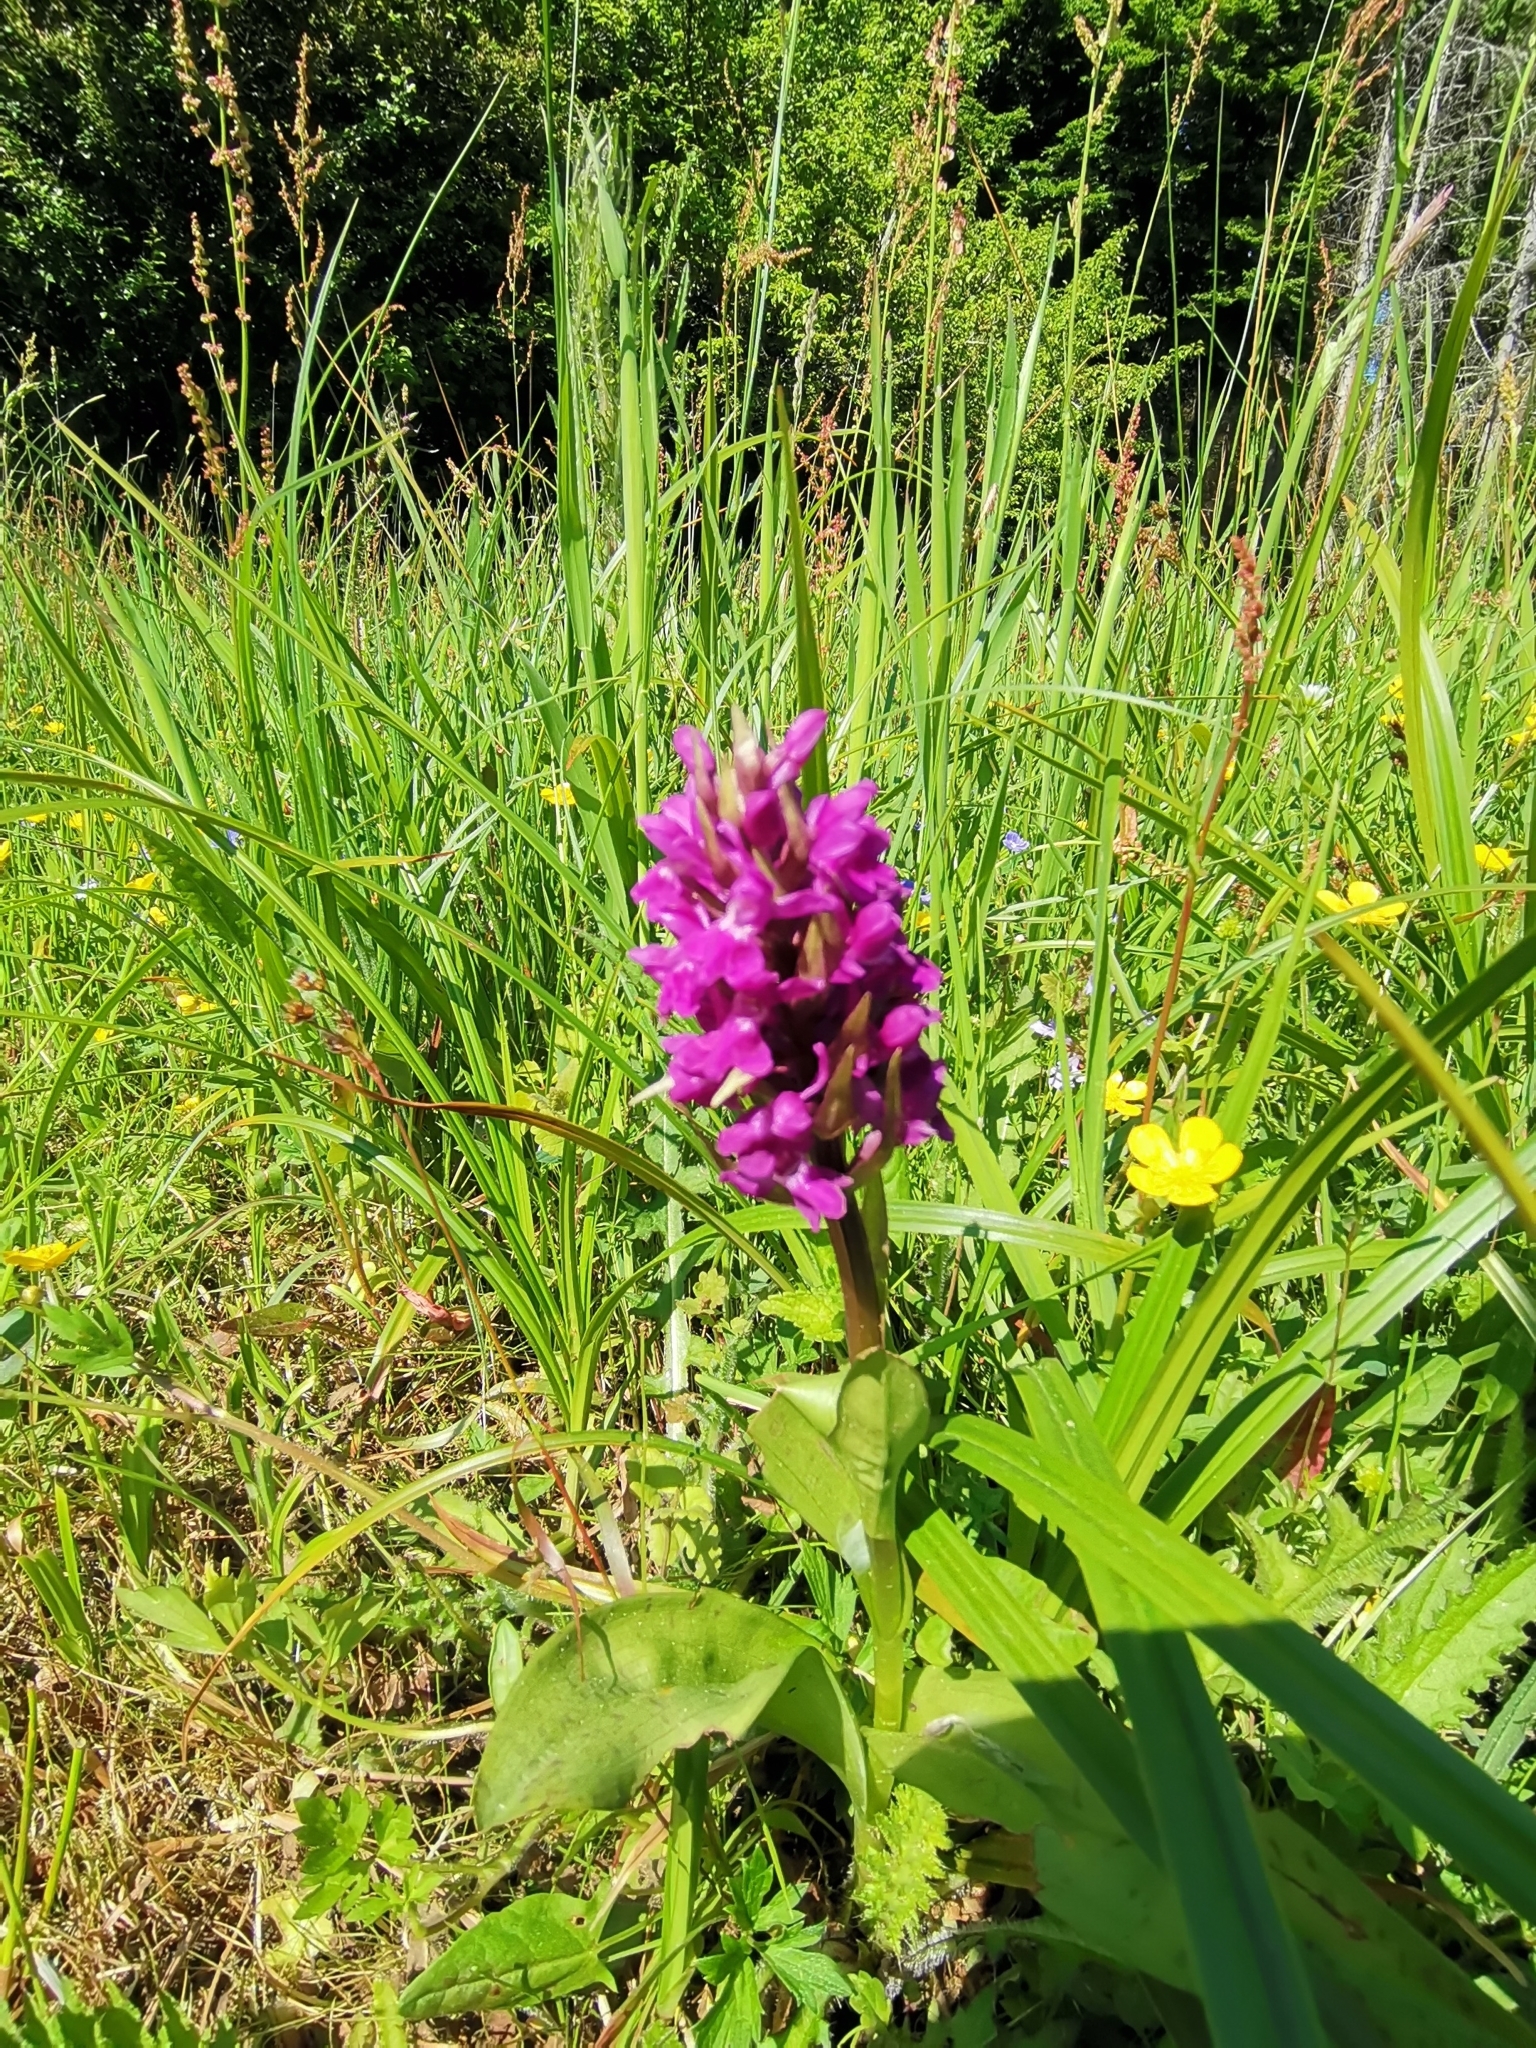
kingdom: Plantae
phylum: Tracheophyta
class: Liliopsida
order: Asparagales
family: Orchidaceae
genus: Dactylorhiza
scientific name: Dactylorhiza majalis
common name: Marsh orchid
